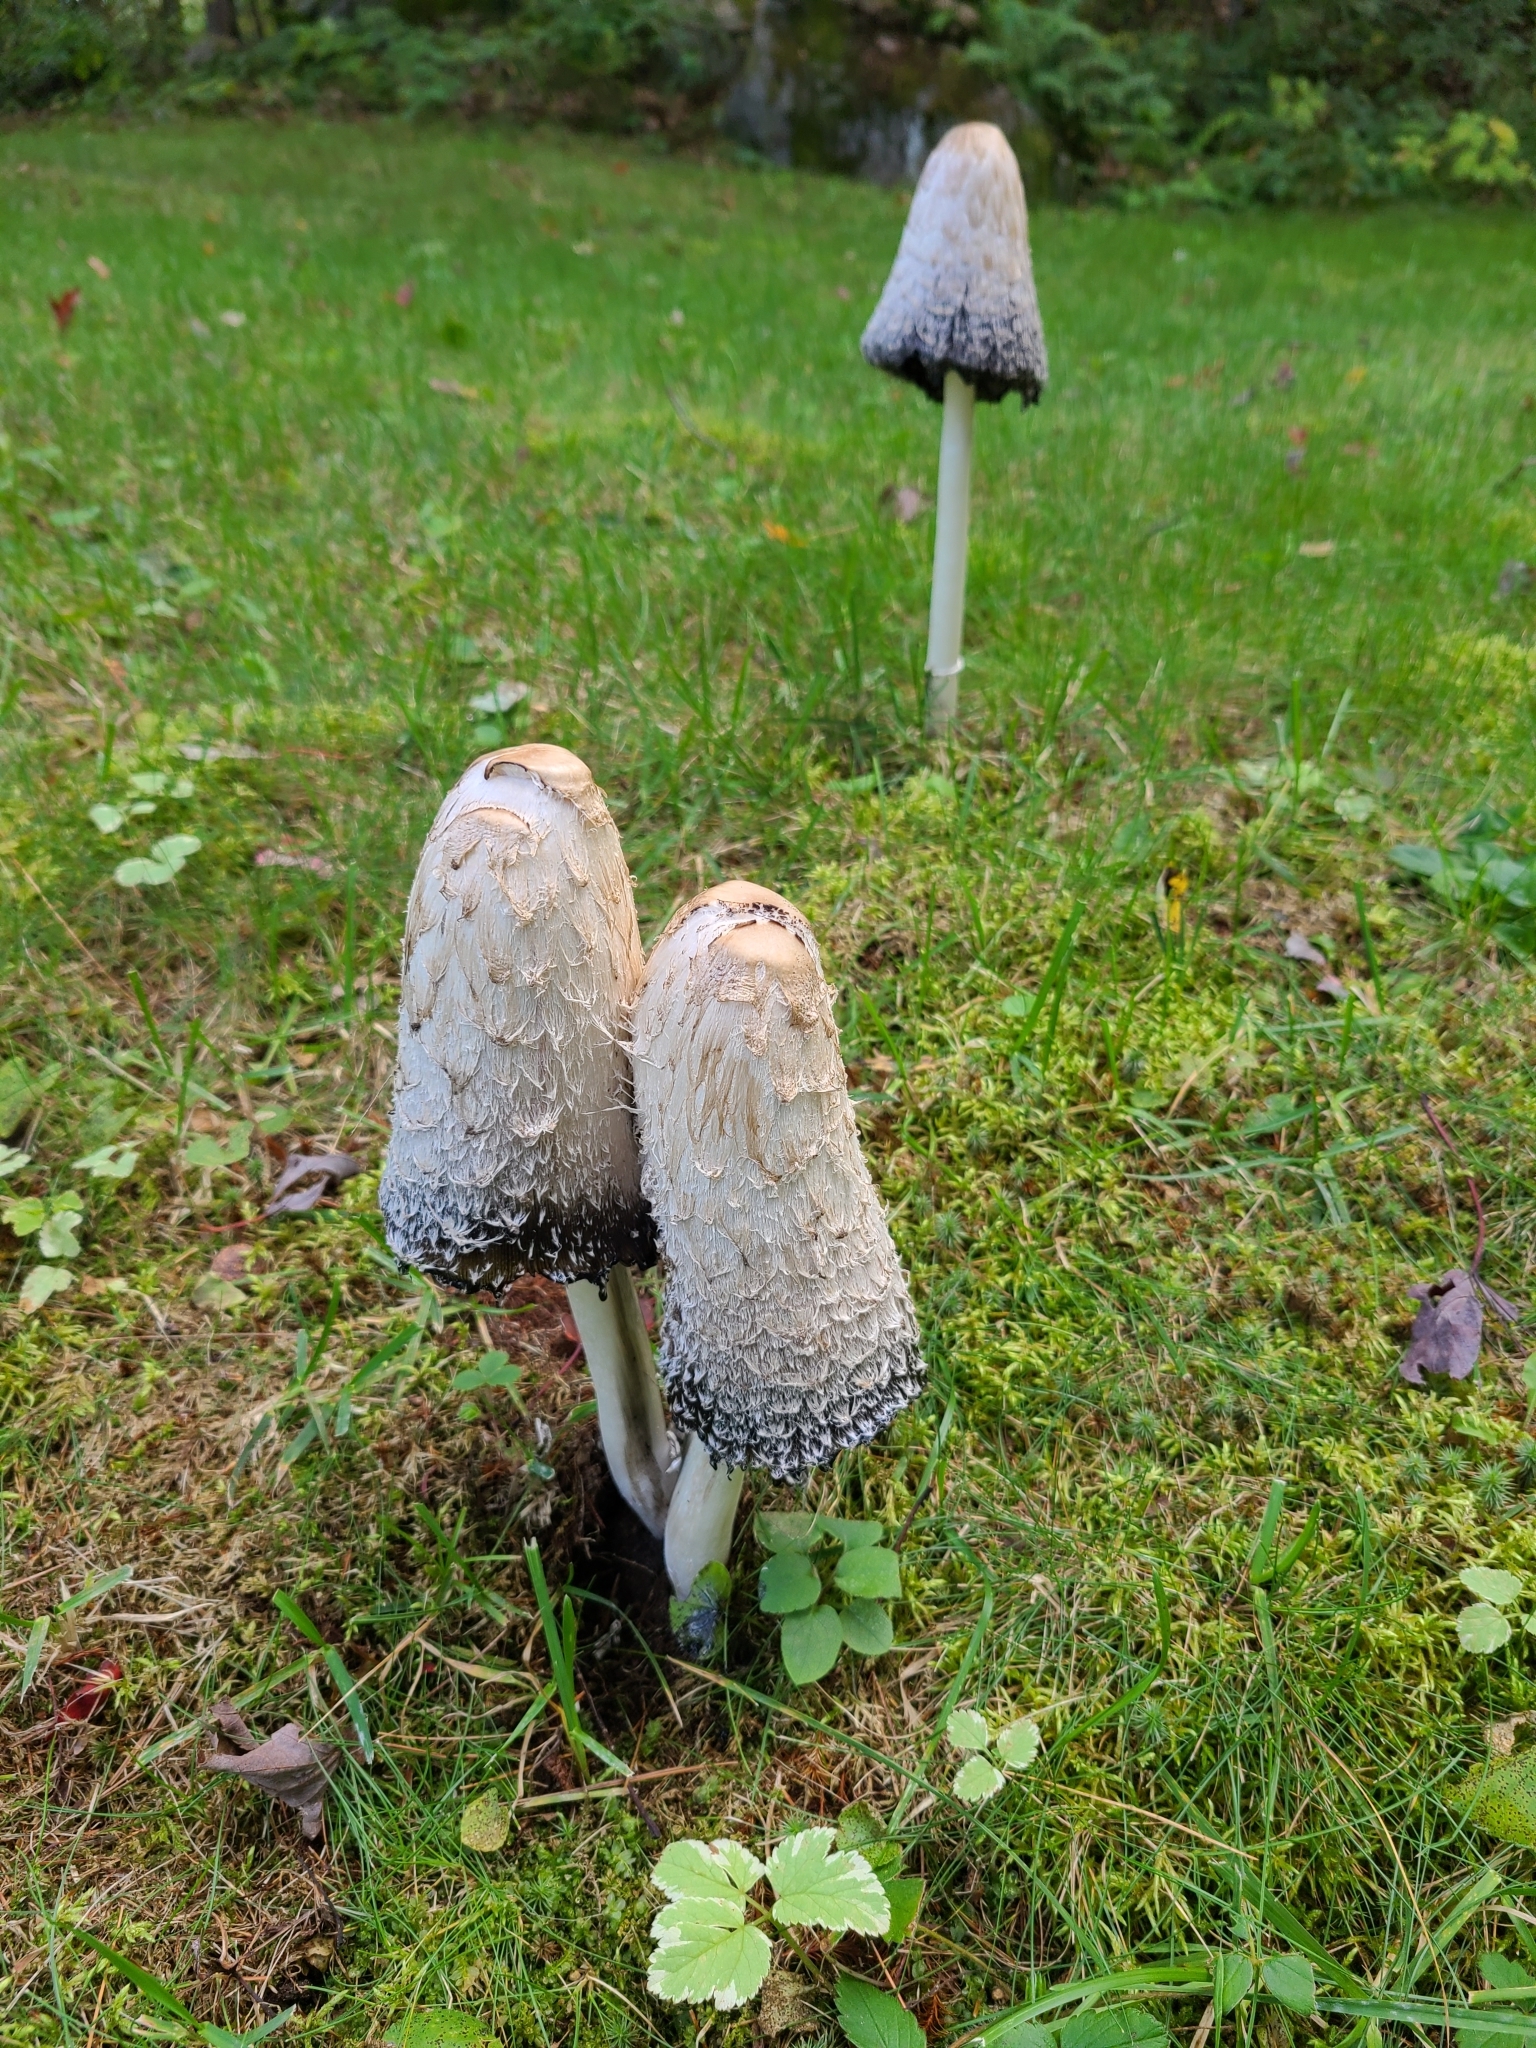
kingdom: Fungi
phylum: Basidiomycota
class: Agaricomycetes
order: Agaricales
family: Agaricaceae
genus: Coprinus
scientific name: Coprinus comatus
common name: Lawyer's wig
